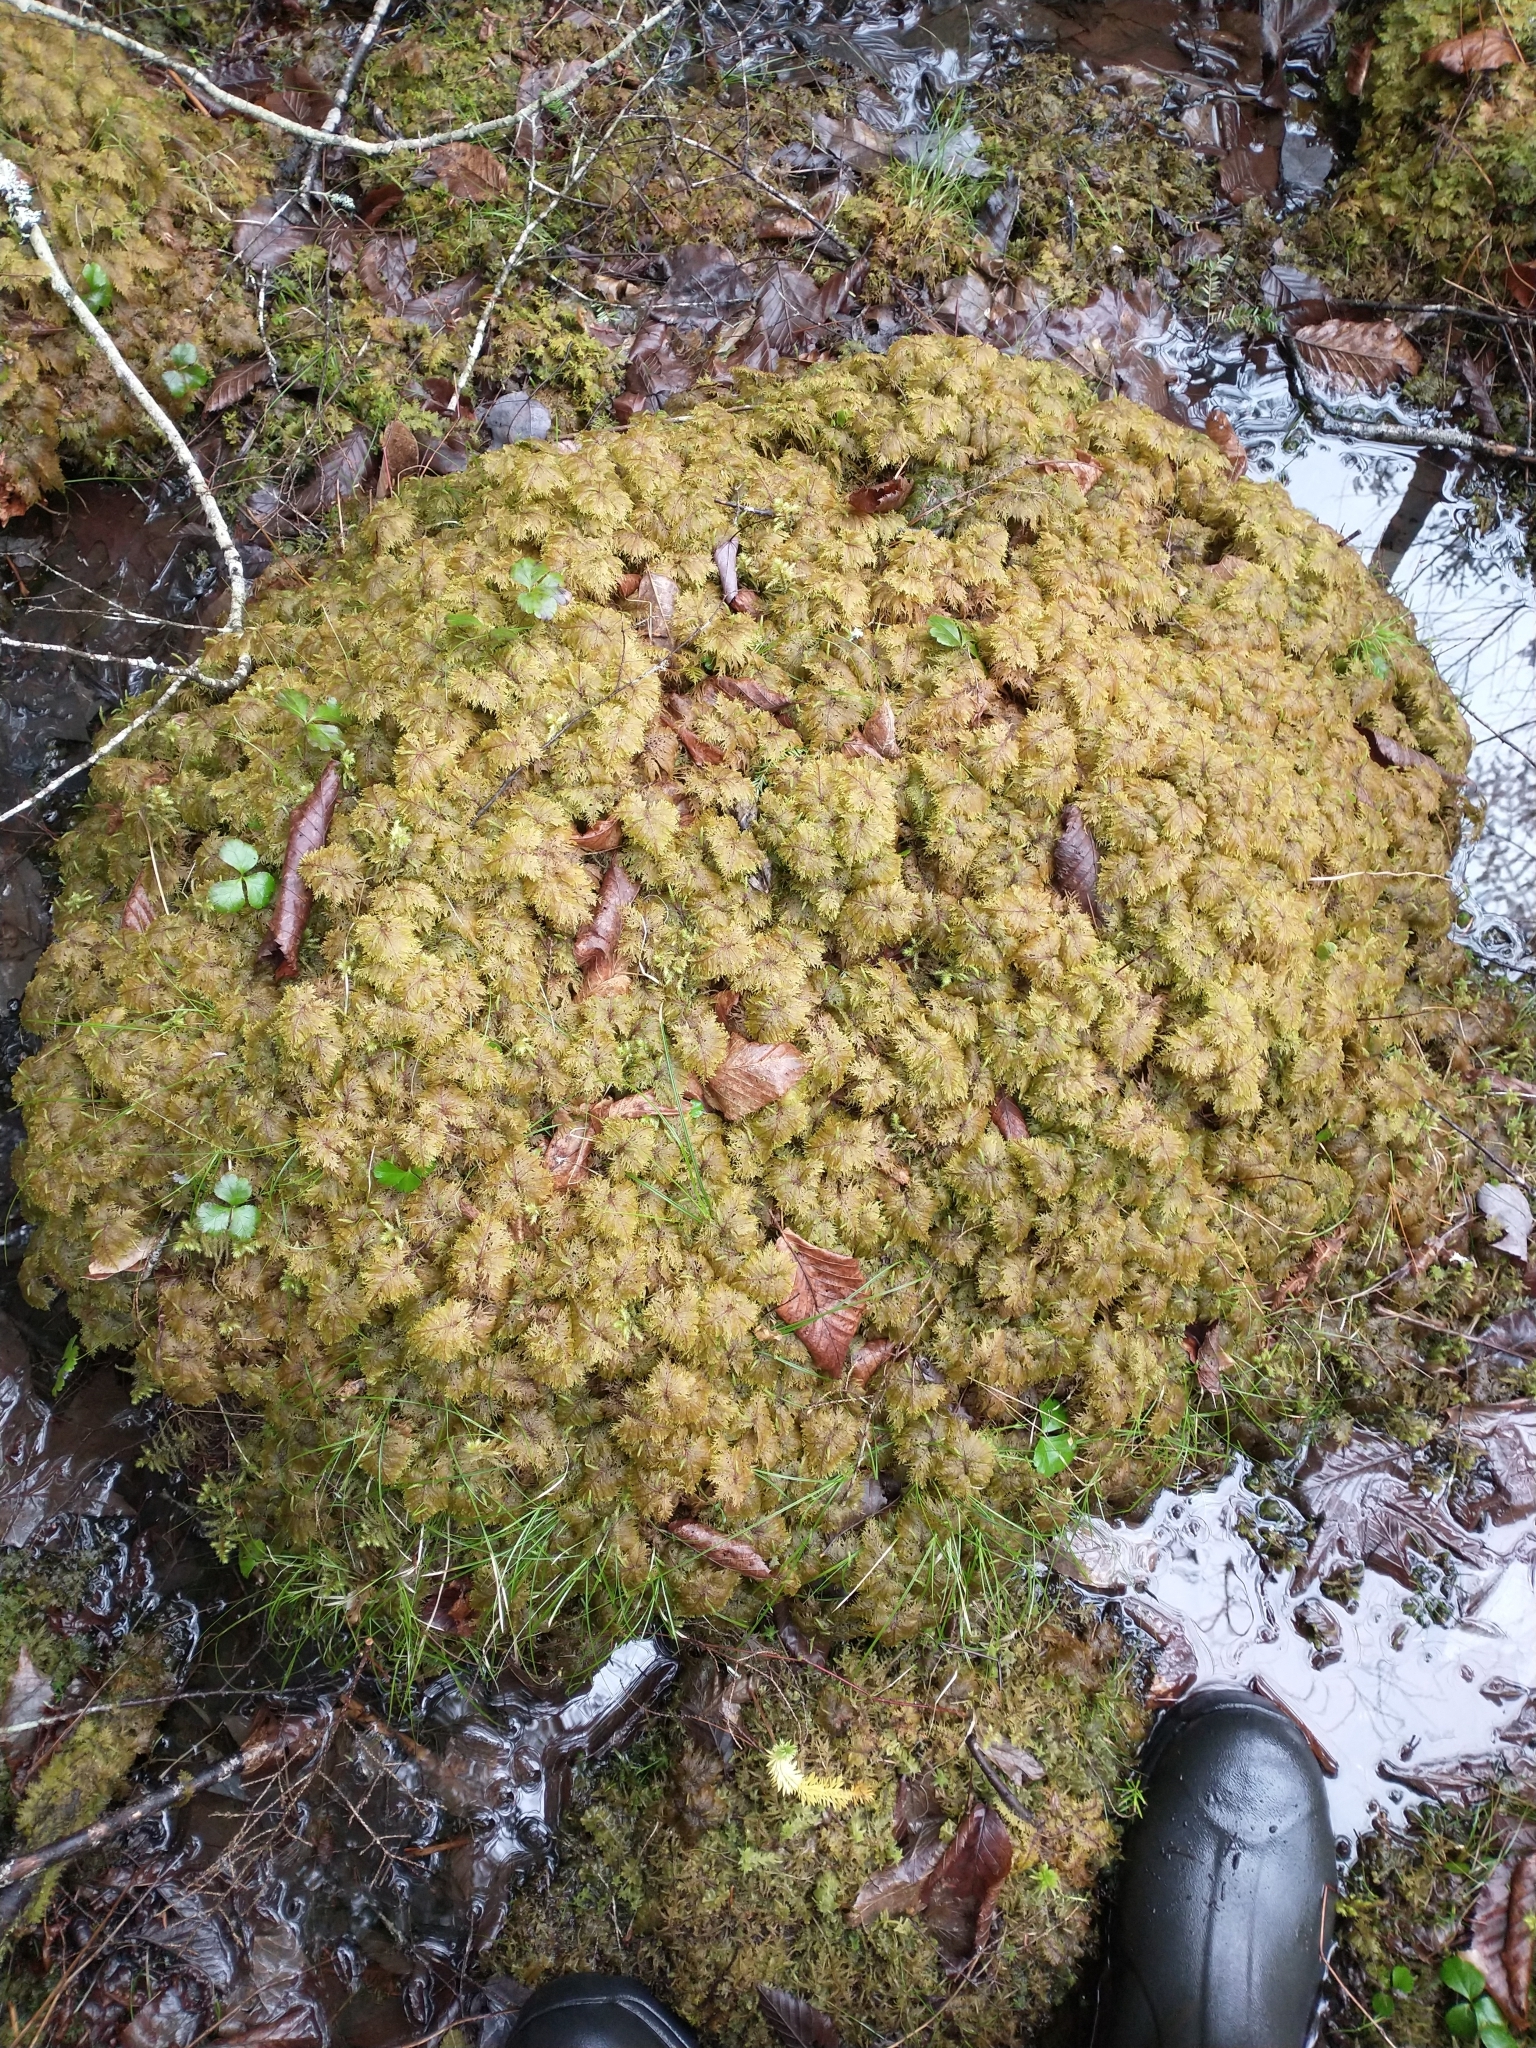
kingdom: Plantae
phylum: Bryophyta
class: Bryopsida
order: Hypnales
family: Hylocomiaceae
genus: Hylocomium
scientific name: Hylocomium splendens
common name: Stairstep moss
